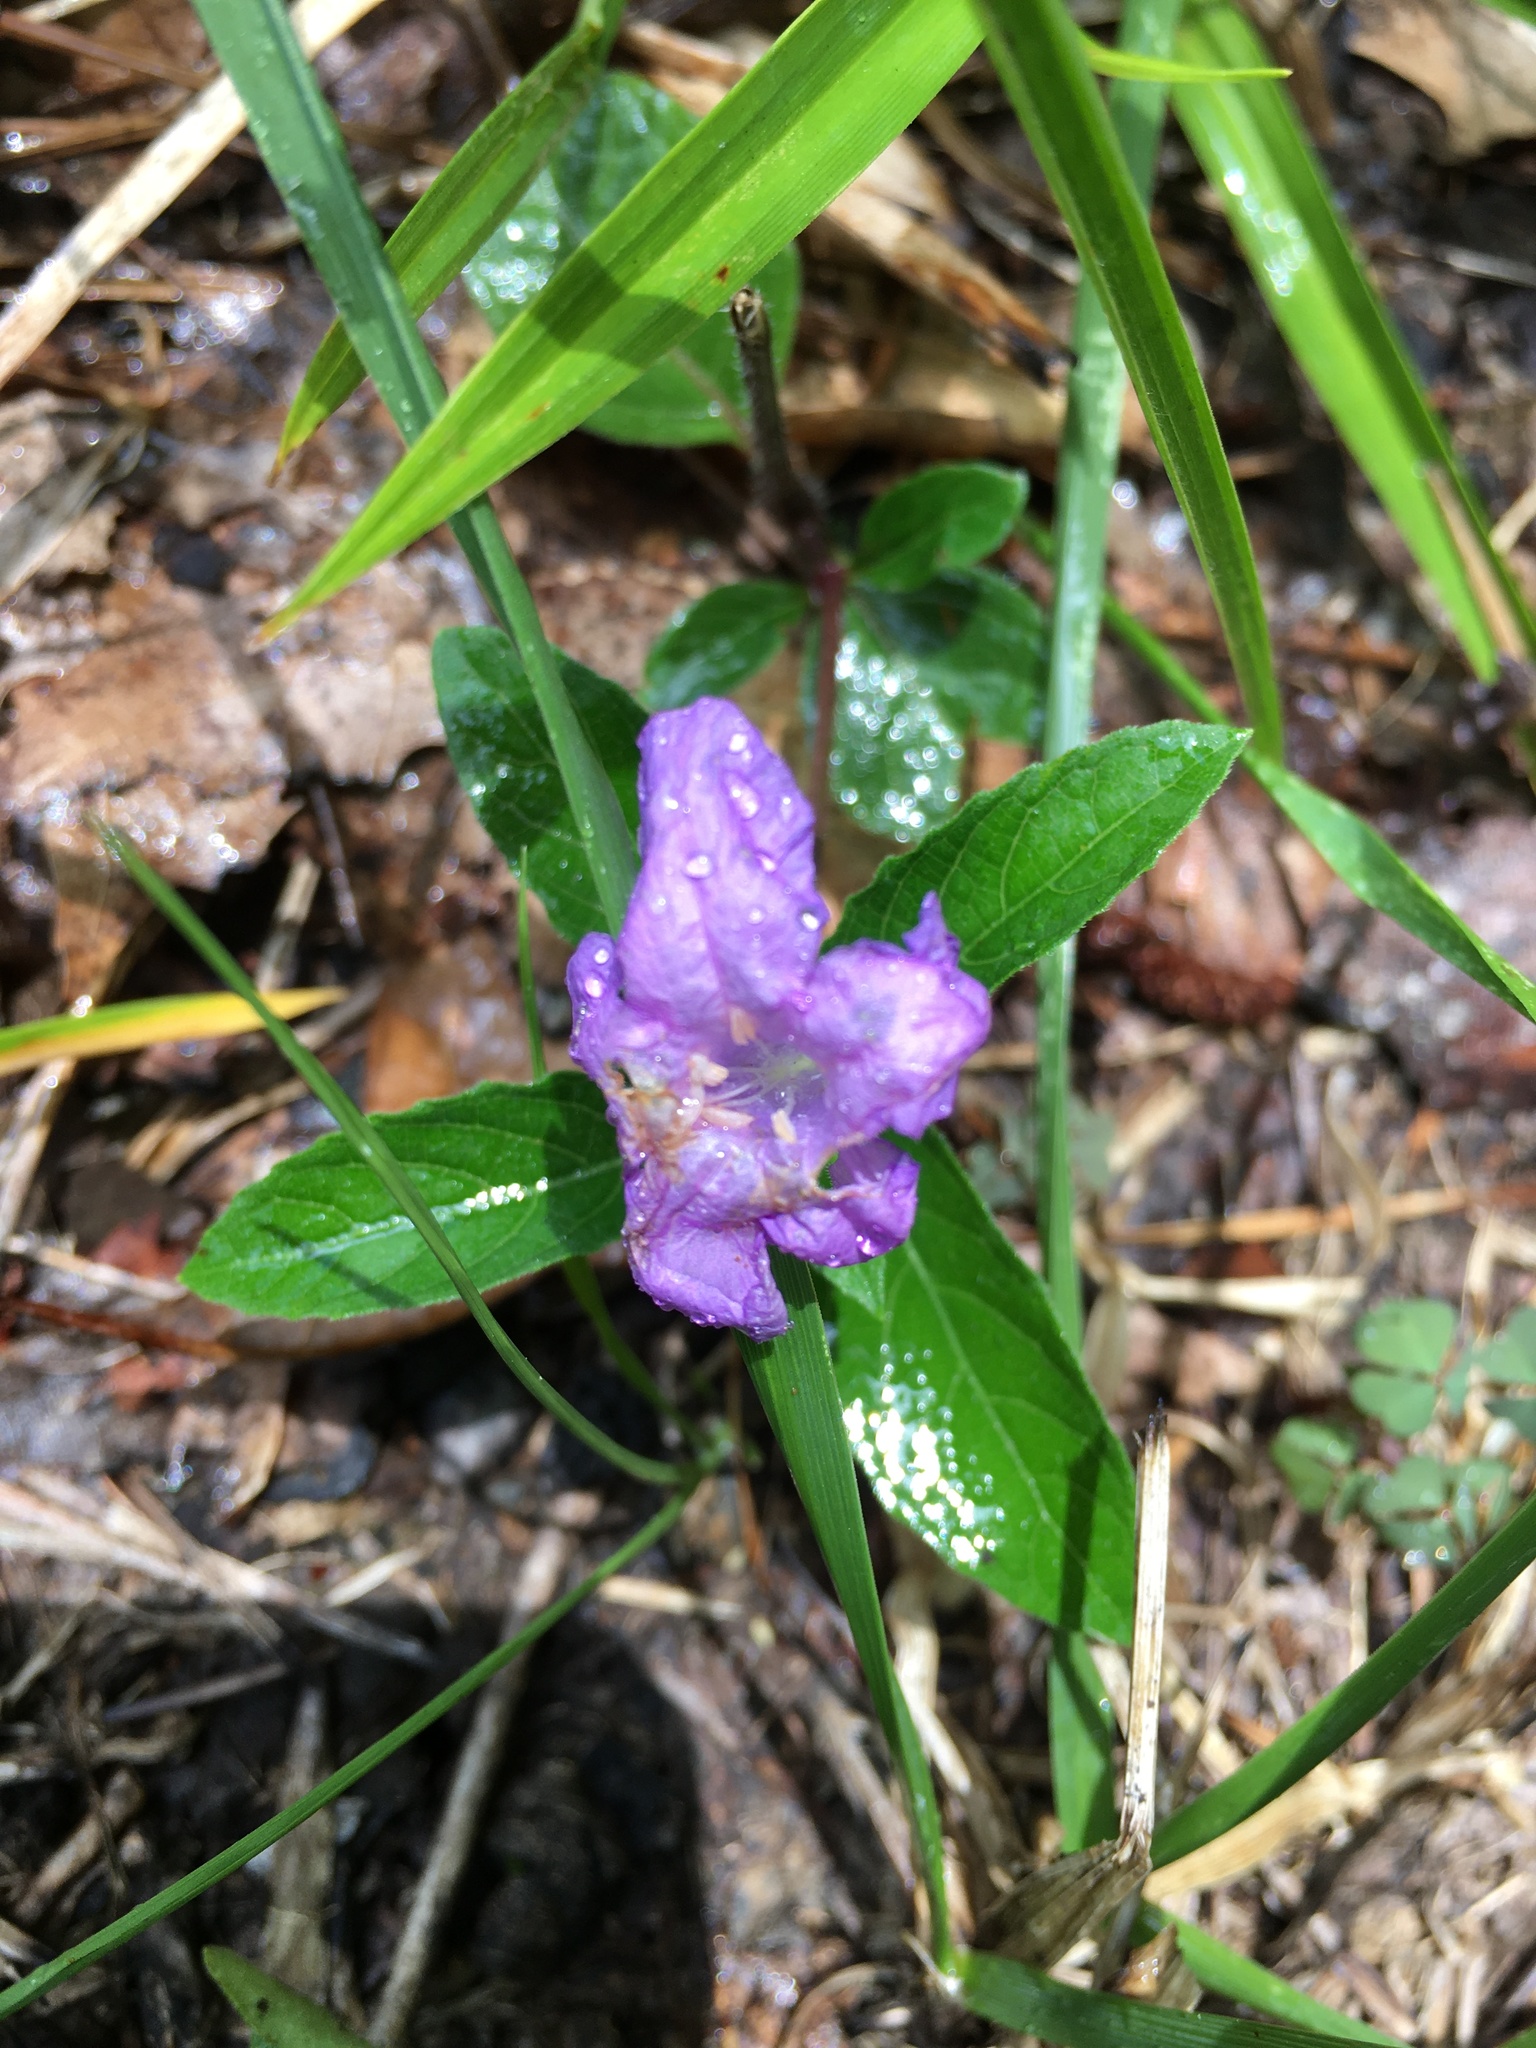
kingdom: Plantae
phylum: Tracheophyta
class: Magnoliopsida
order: Lamiales
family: Acanthaceae
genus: Ruellia
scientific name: Ruellia caroliniensis
